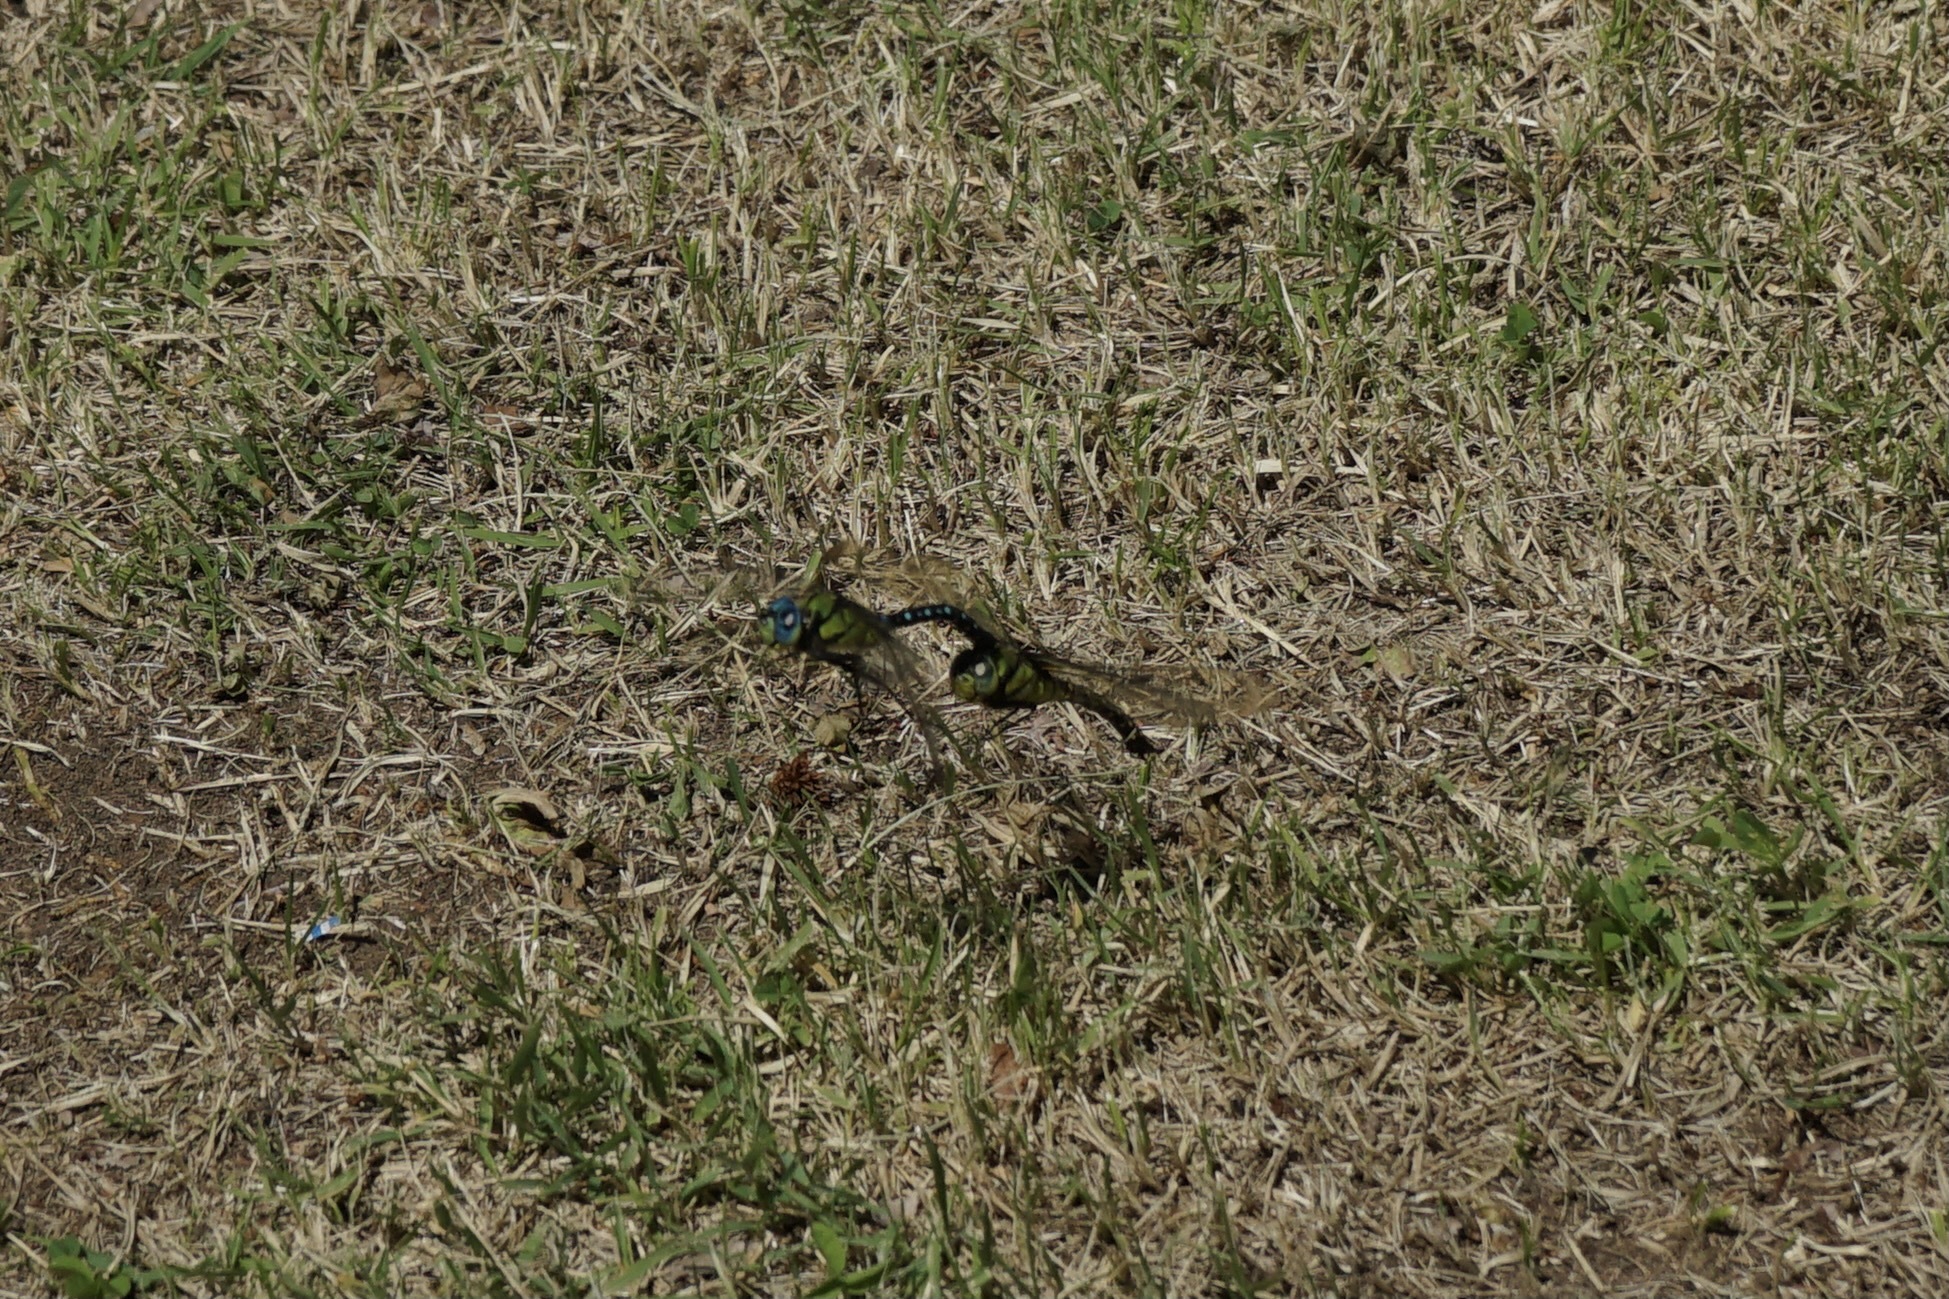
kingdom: Animalia
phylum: Arthropoda
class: Insecta
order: Odonata
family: Aeshnidae
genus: Anax
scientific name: Anax nigrofasciatus
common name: Blue-spotted emperor
